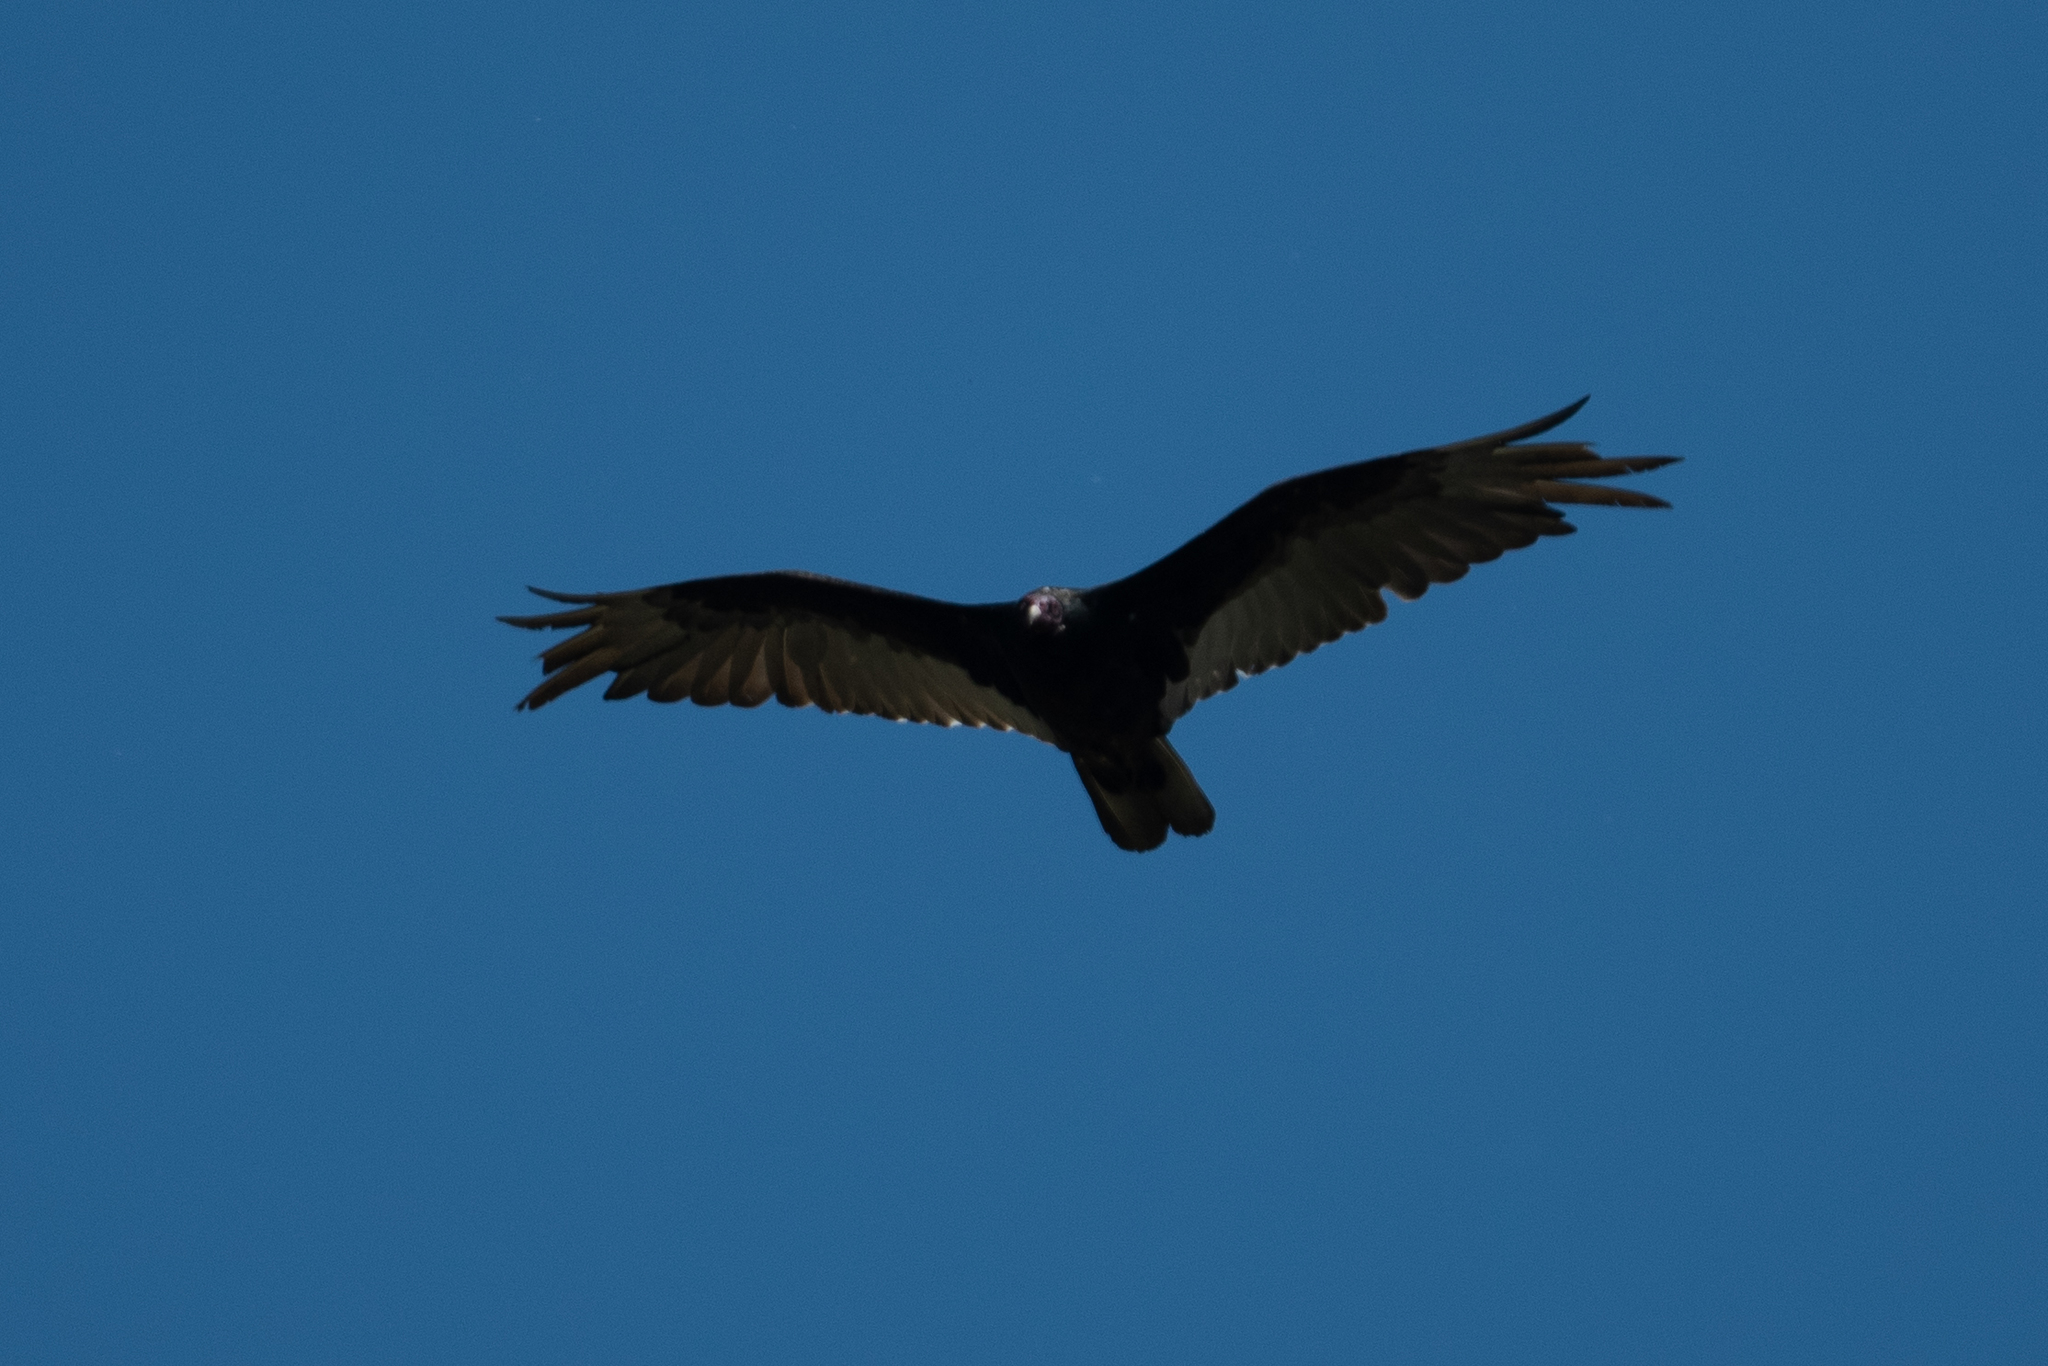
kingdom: Animalia
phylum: Chordata
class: Aves
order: Accipitriformes
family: Cathartidae
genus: Cathartes
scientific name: Cathartes aura
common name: Turkey vulture
